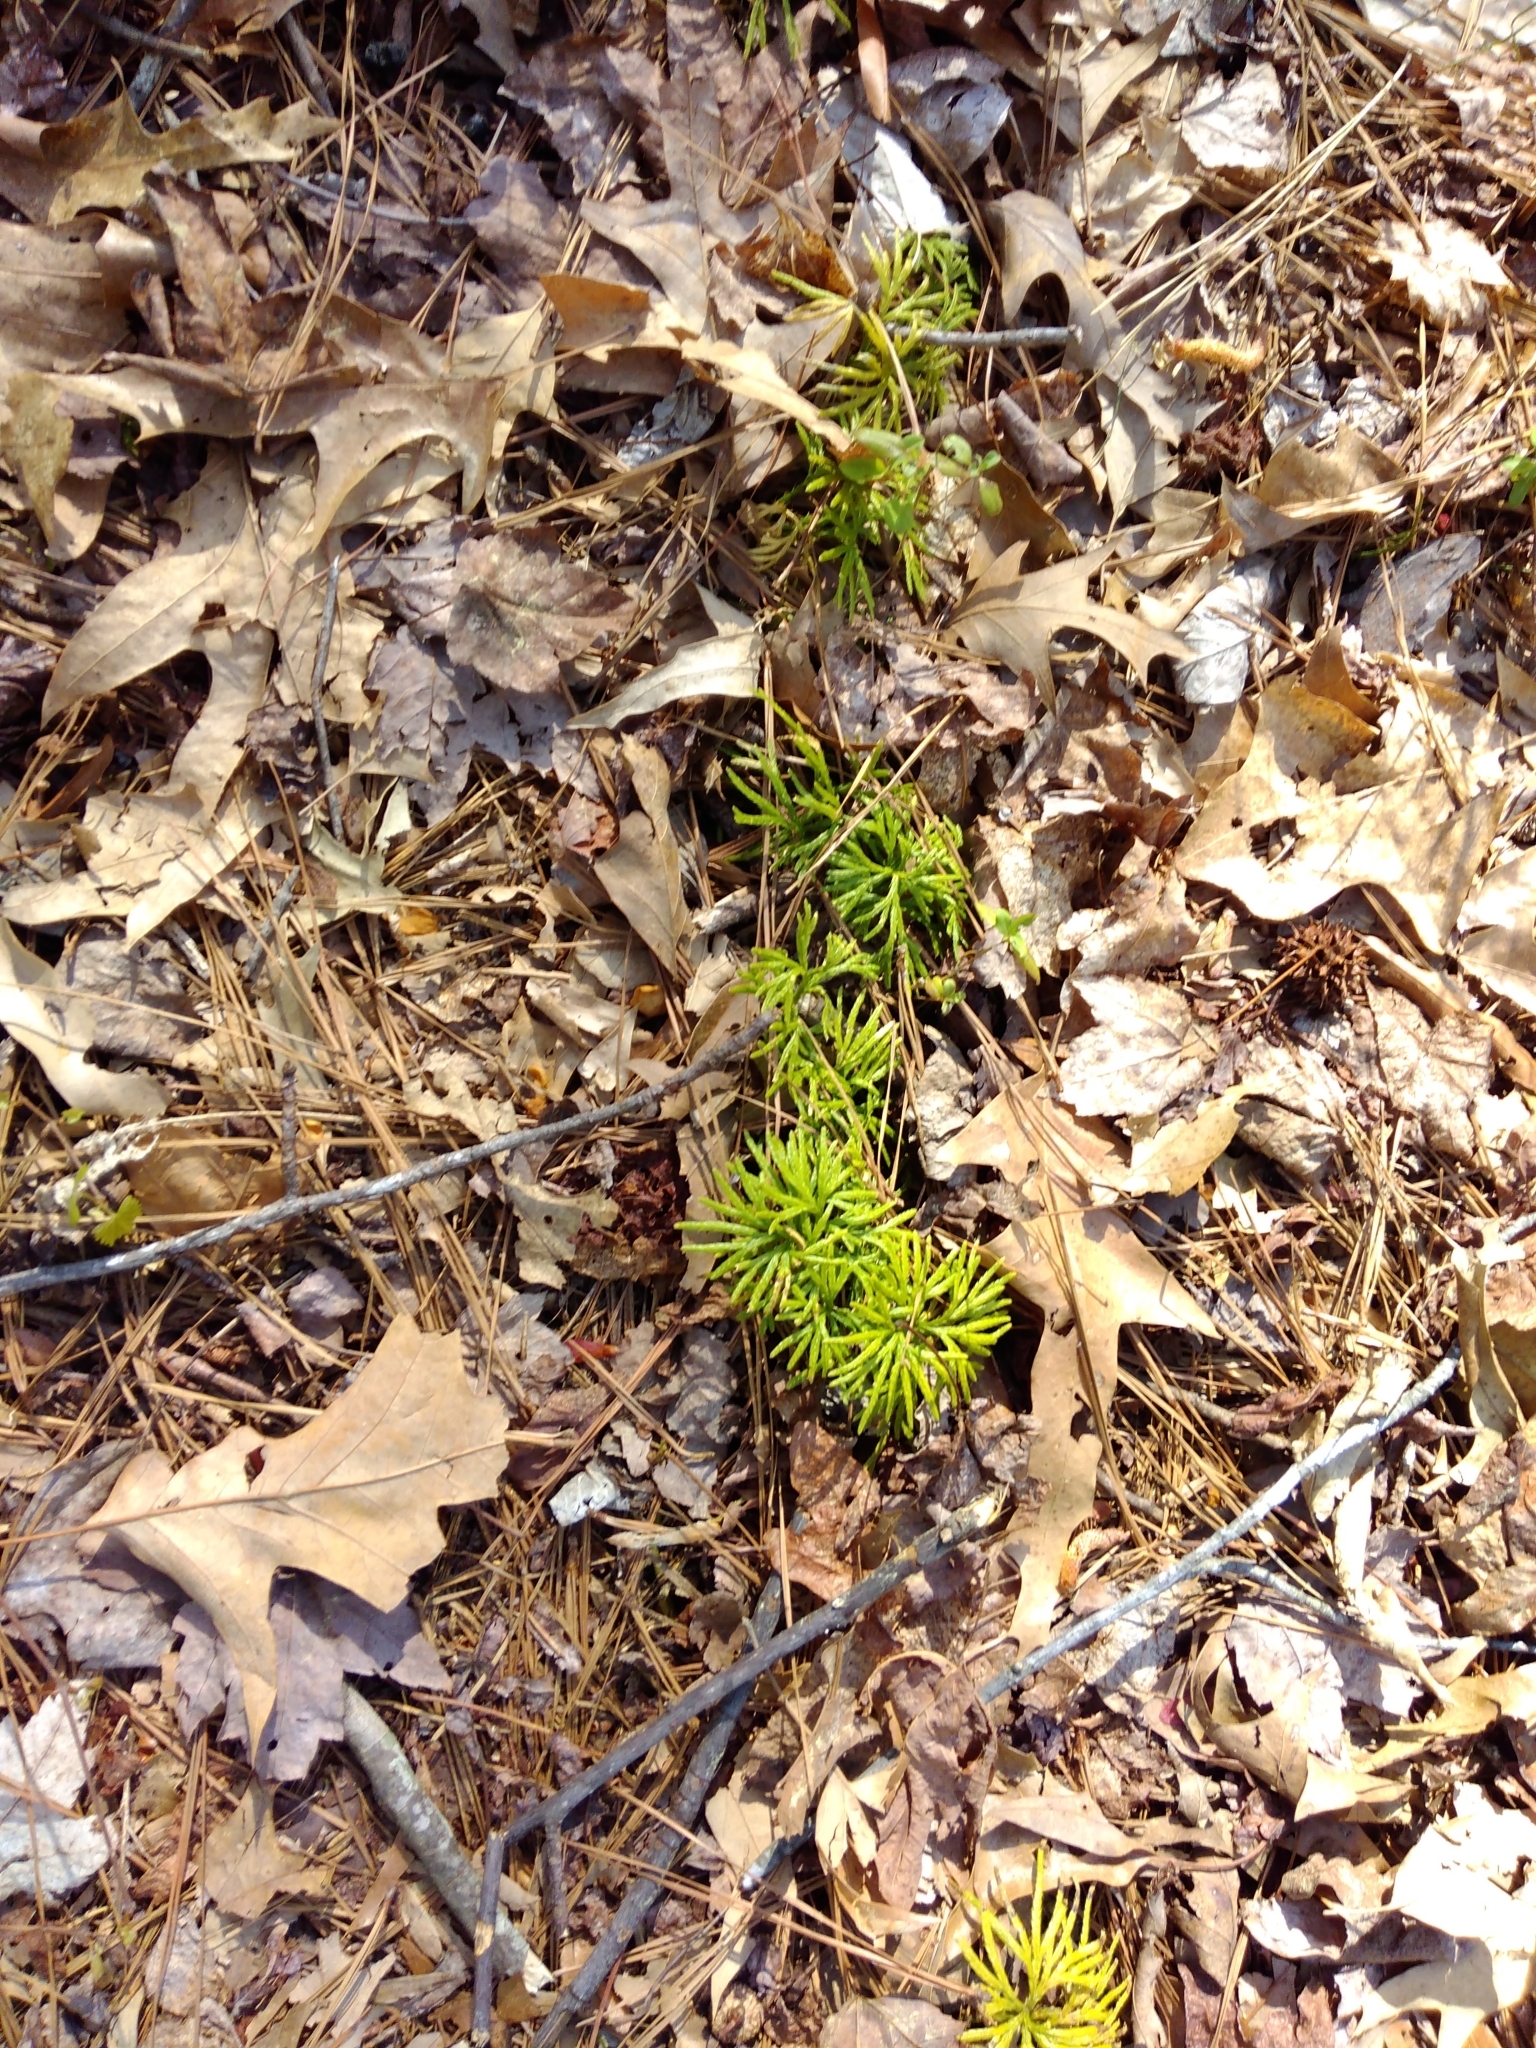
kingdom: Plantae
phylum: Tracheophyta
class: Lycopodiopsida
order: Lycopodiales
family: Lycopodiaceae
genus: Diphasiastrum
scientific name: Diphasiastrum digitatum
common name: Southern running-pine
